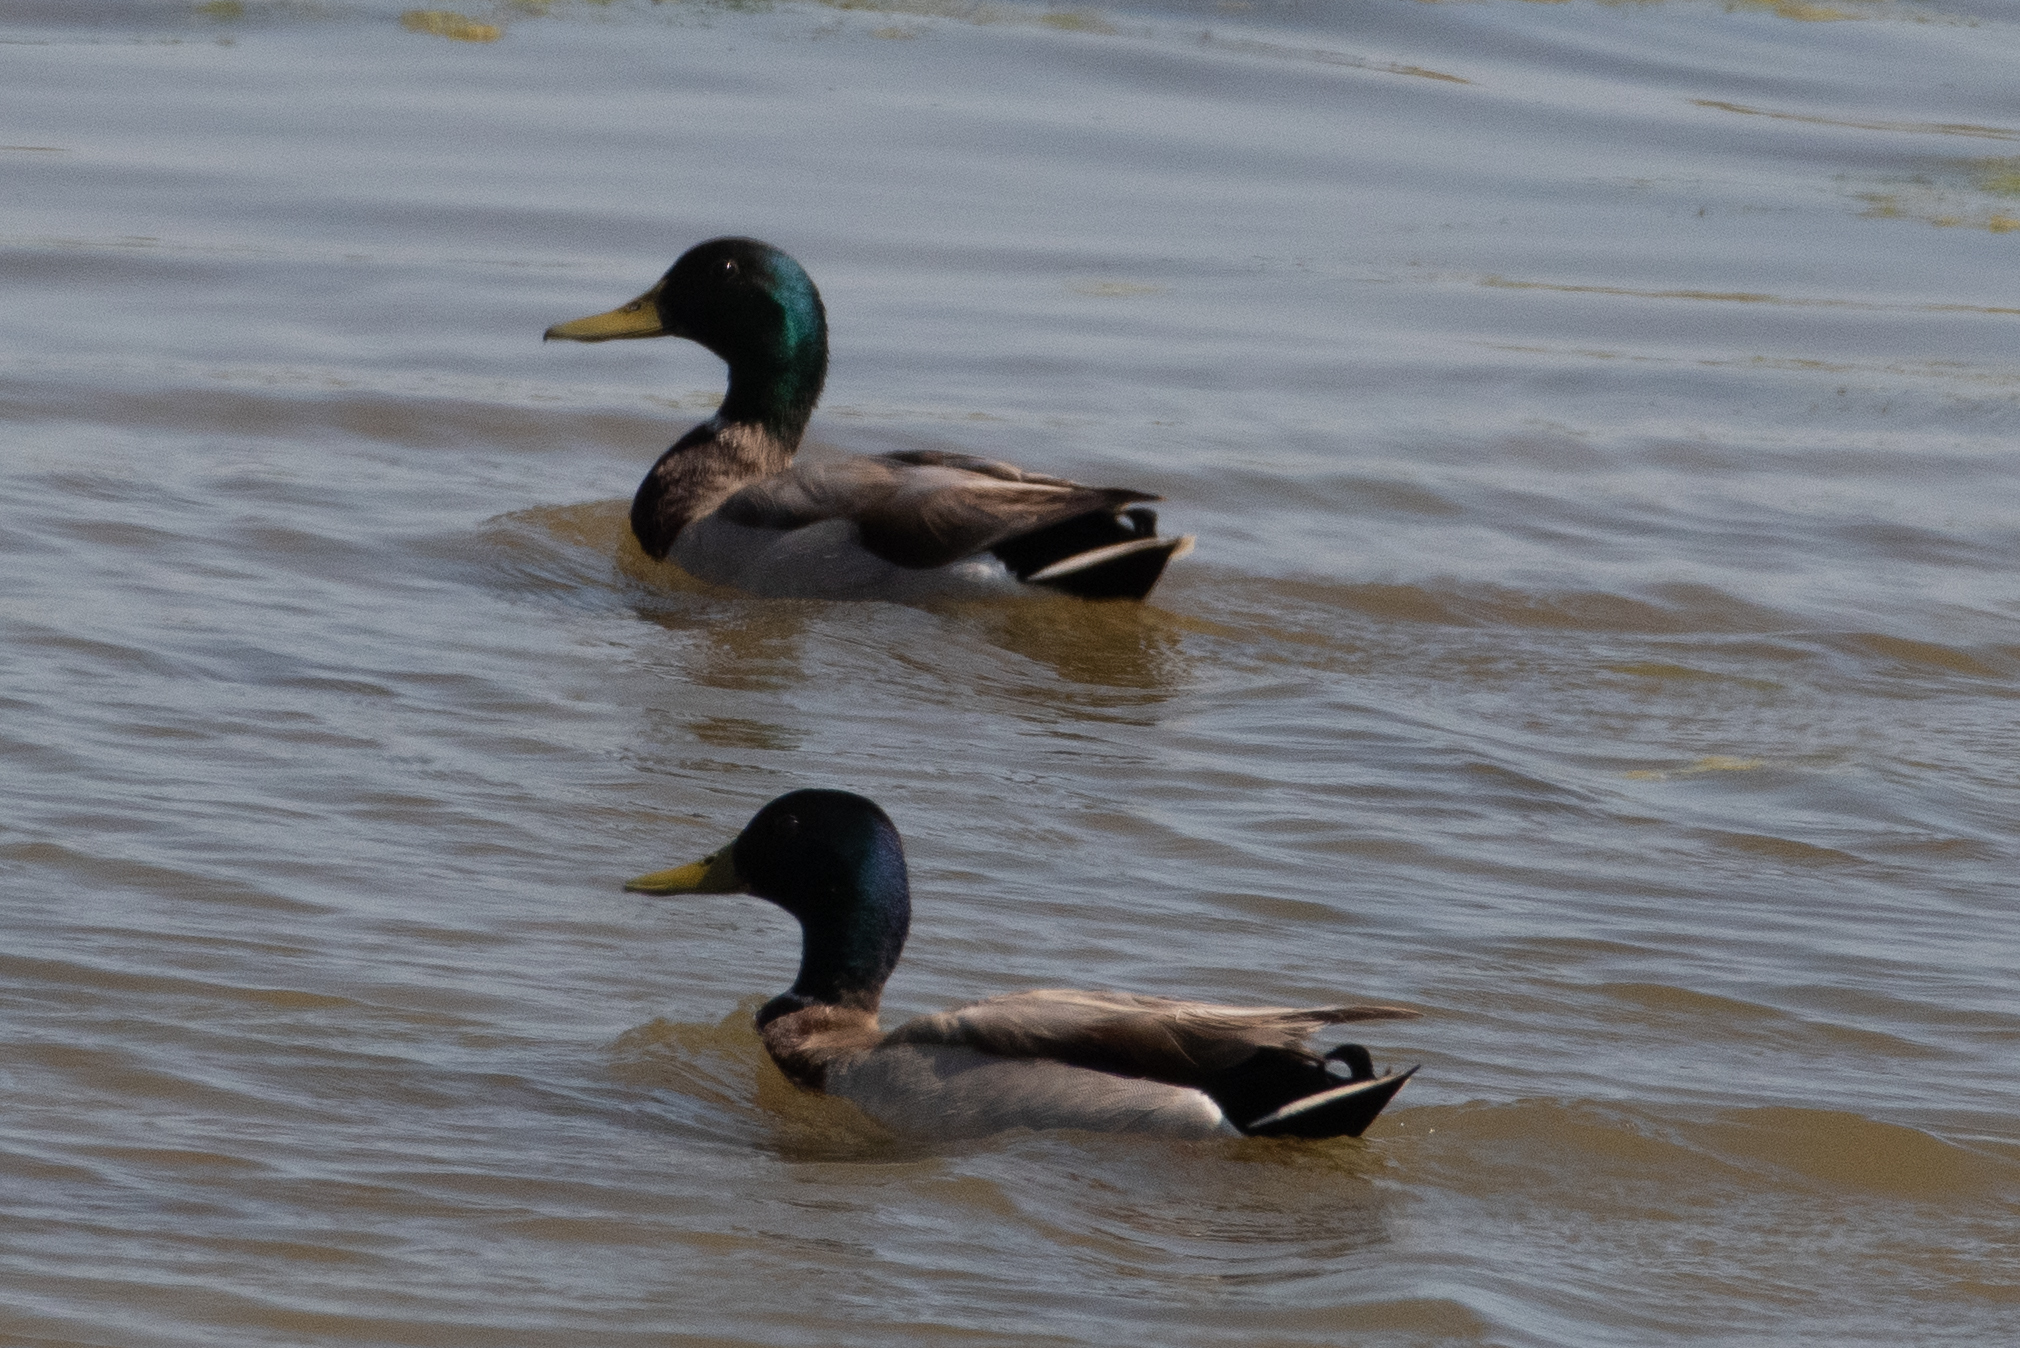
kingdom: Animalia
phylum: Chordata
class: Aves
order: Anseriformes
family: Anatidae
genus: Anas
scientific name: Anas platyrhynchos
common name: Mallard
